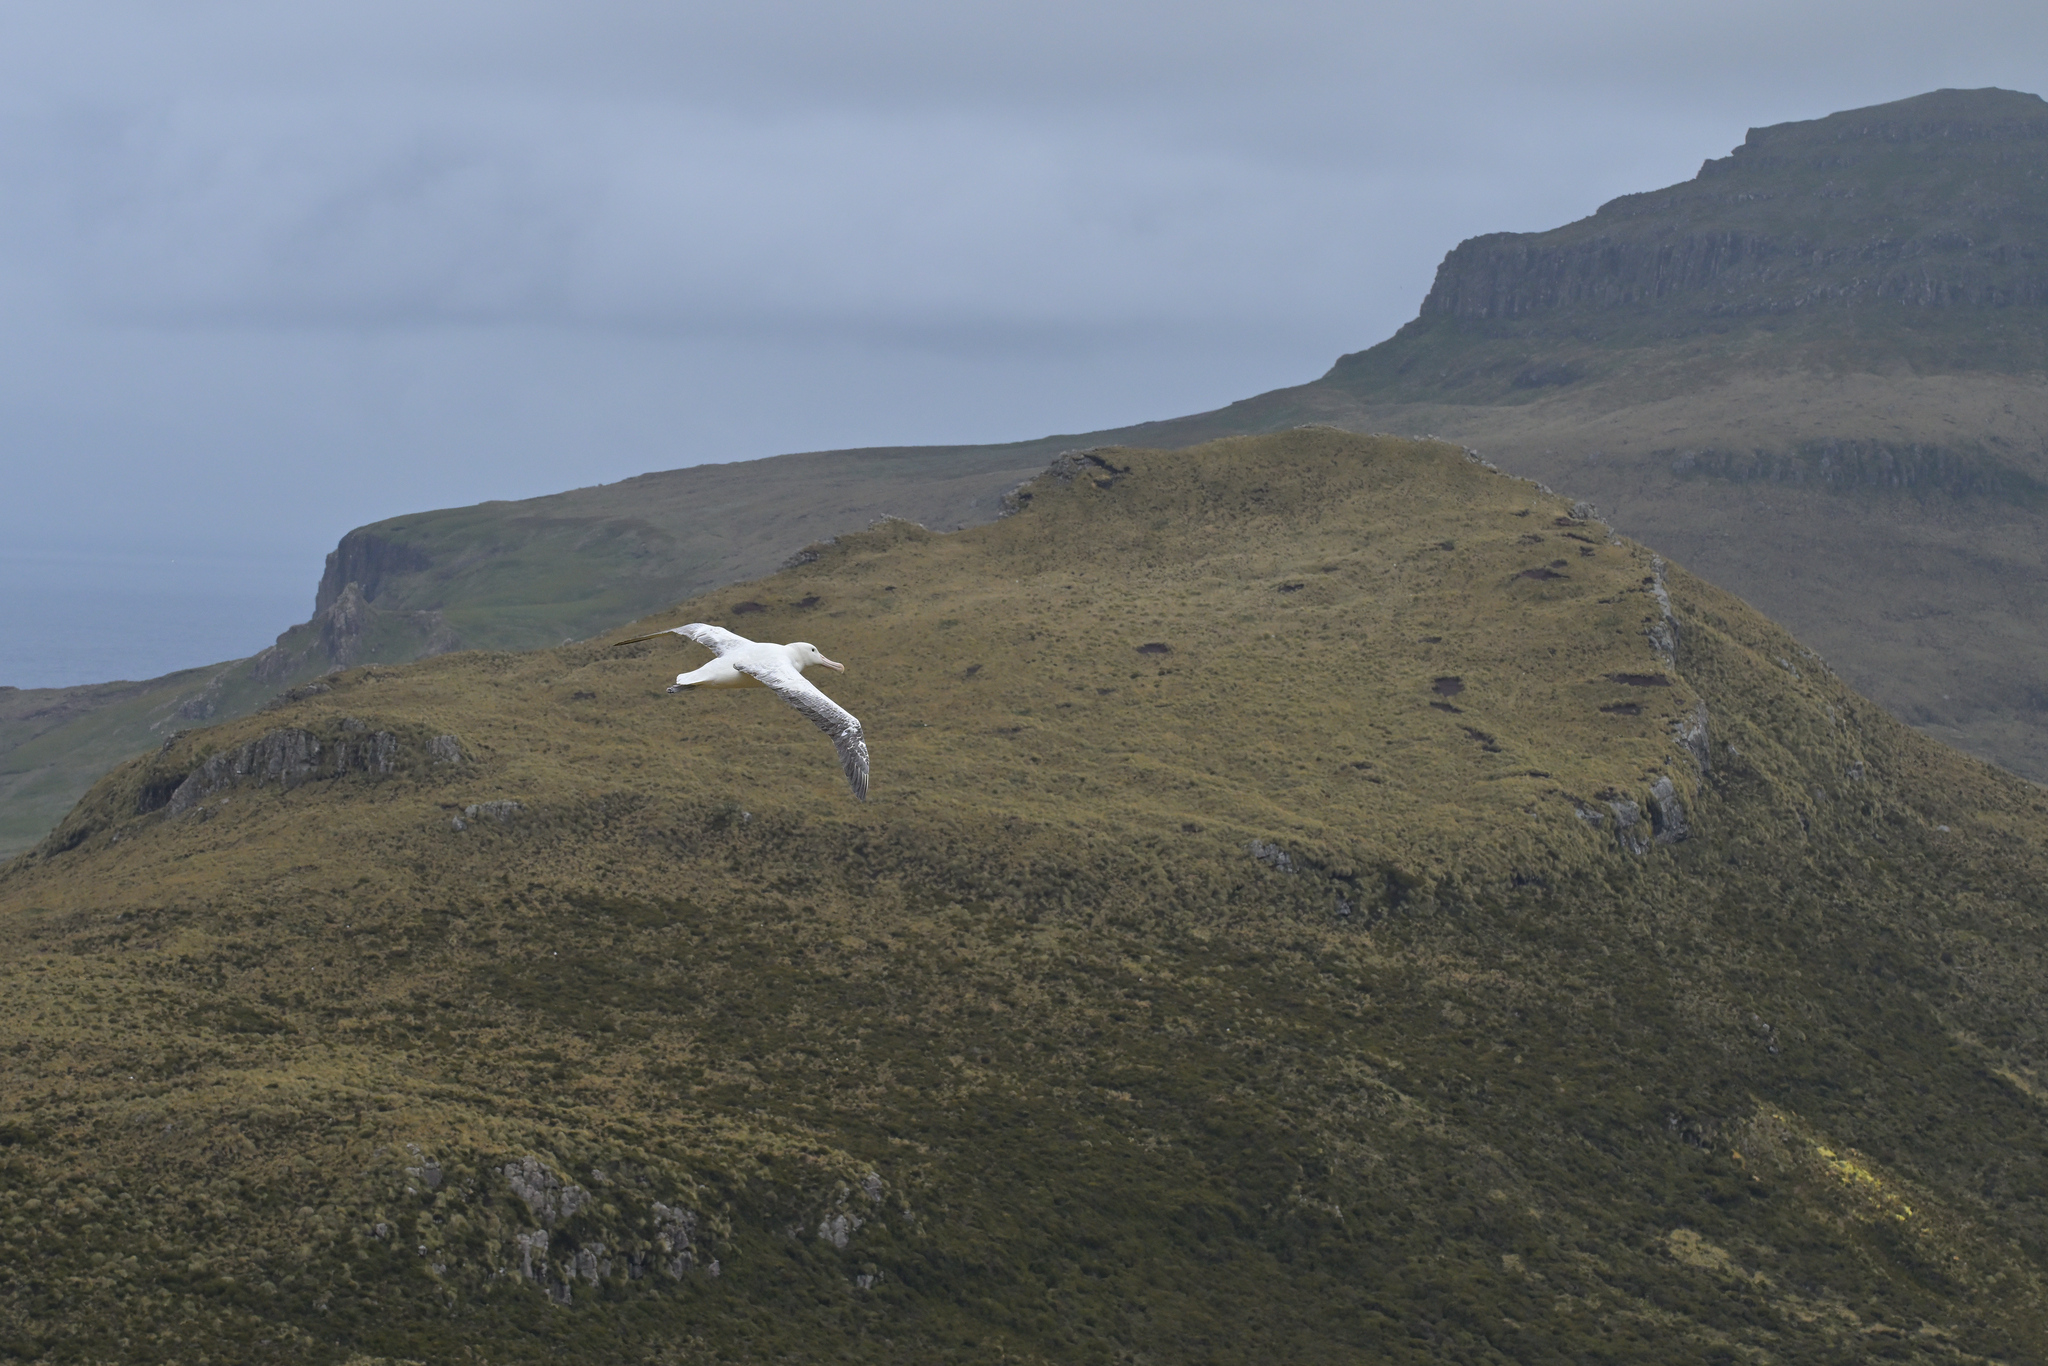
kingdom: Animalia
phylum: Chordata
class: Aves
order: Procellariiformes
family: Diomedeidae
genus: Diomedea
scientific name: Diomedea epomophora
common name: Southern royal albatross
